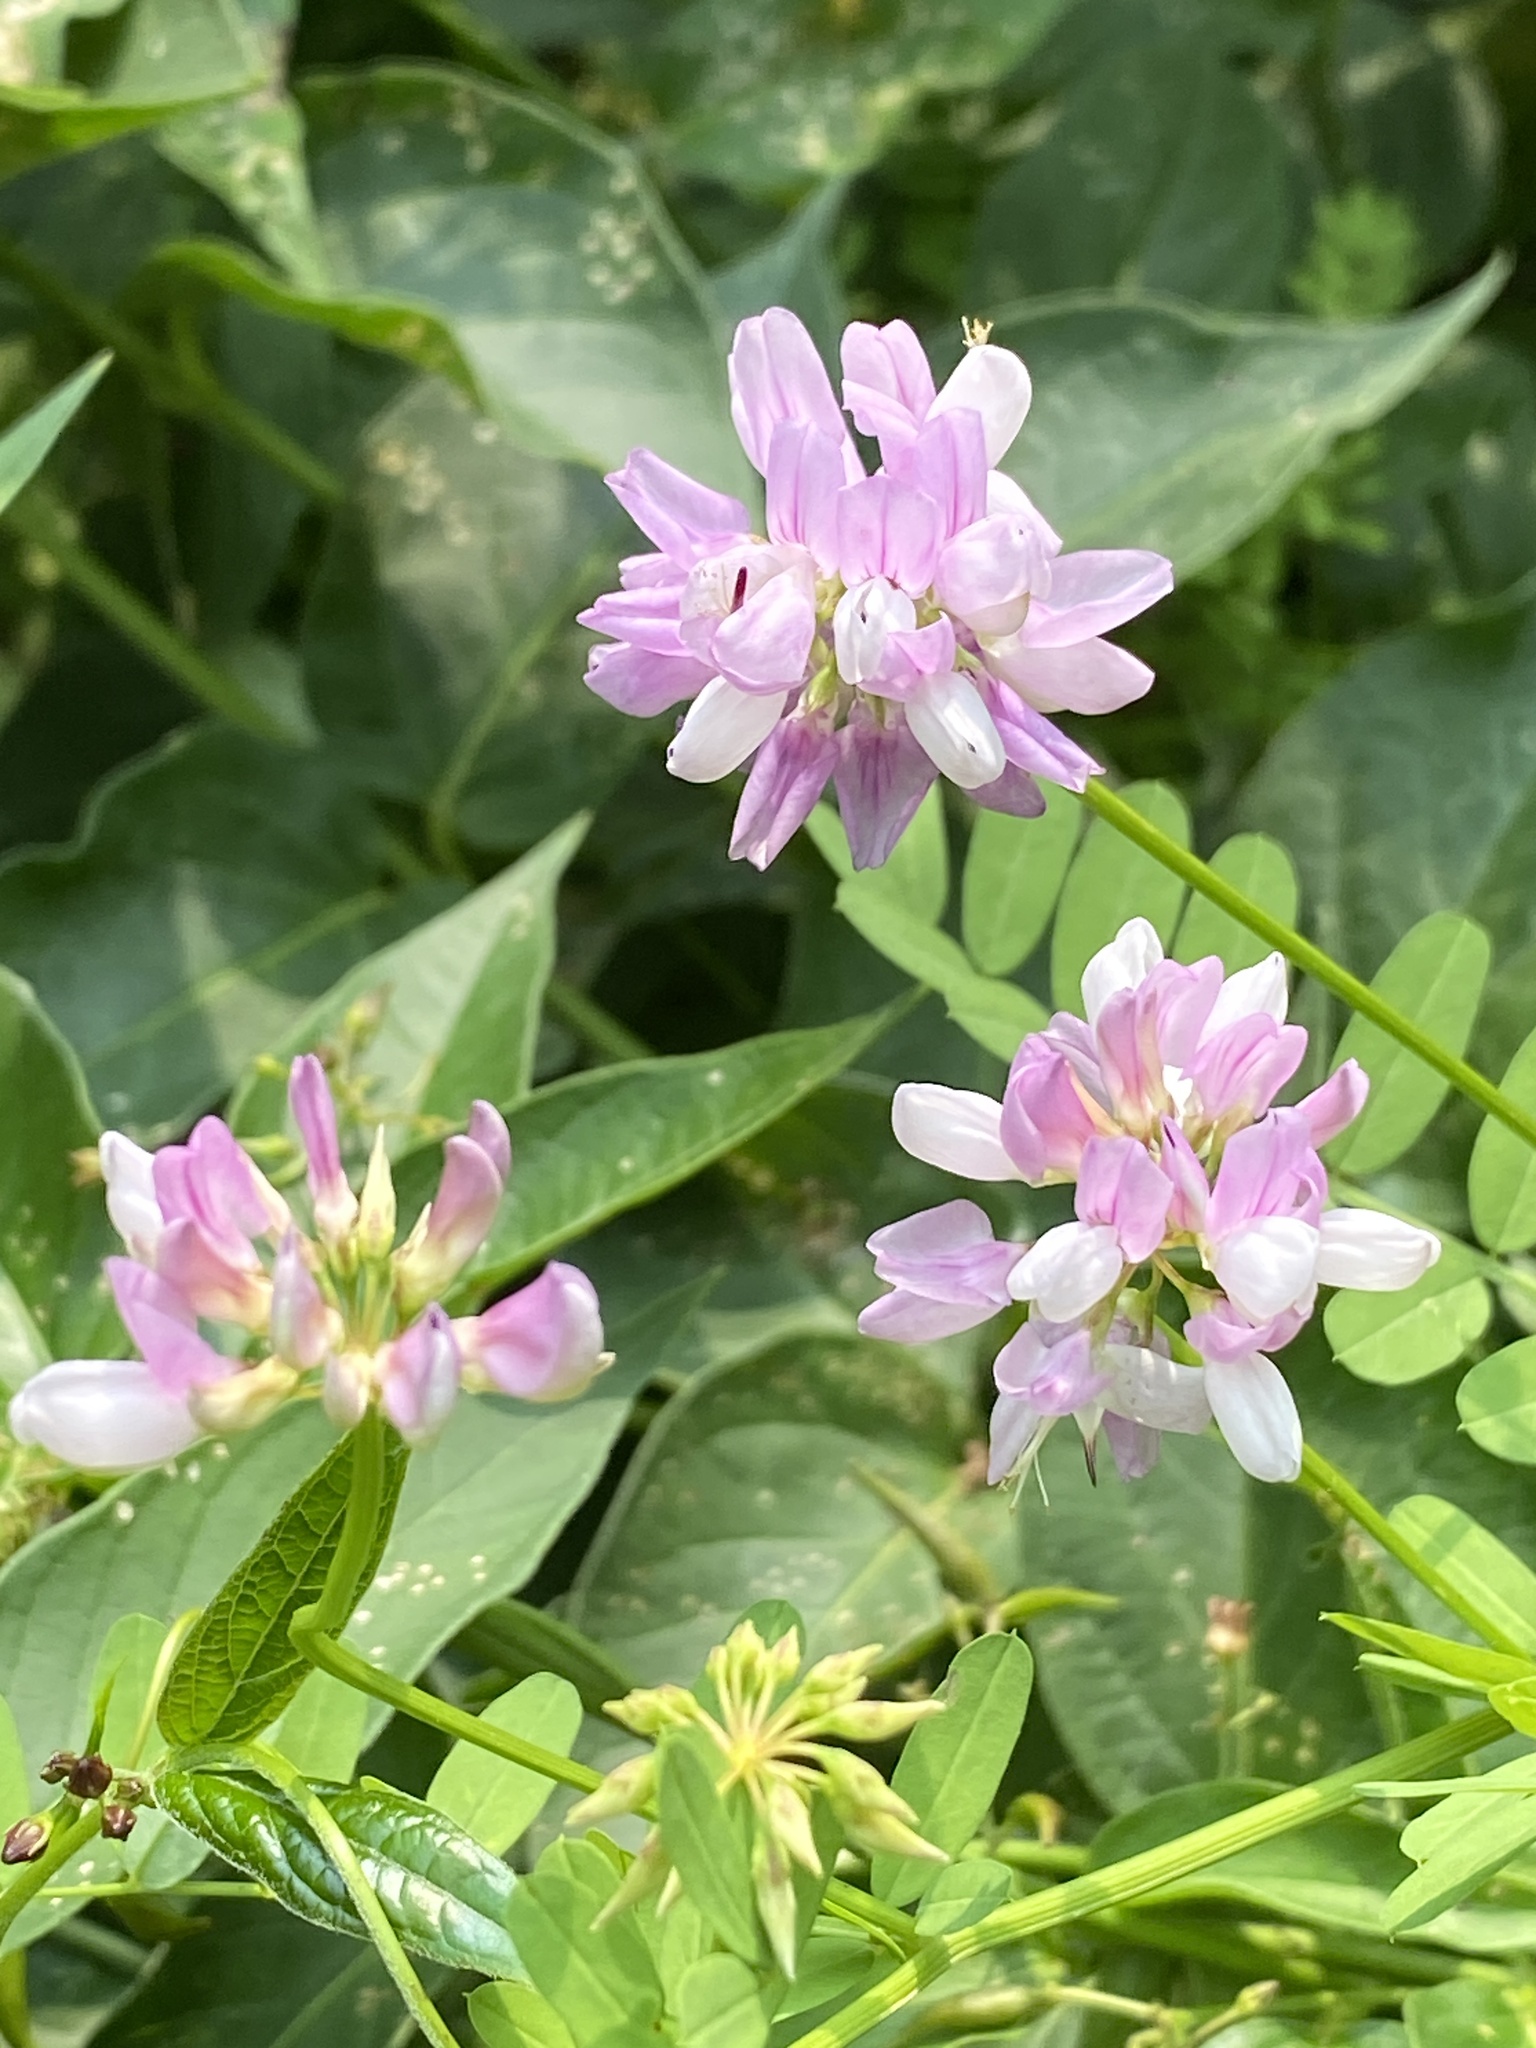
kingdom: Plantae
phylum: Tracheophyta
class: Magnoliopsida
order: Fabales
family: Fabaceae
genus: Coronilla
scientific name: Coronilla varia
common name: Crownvetch
